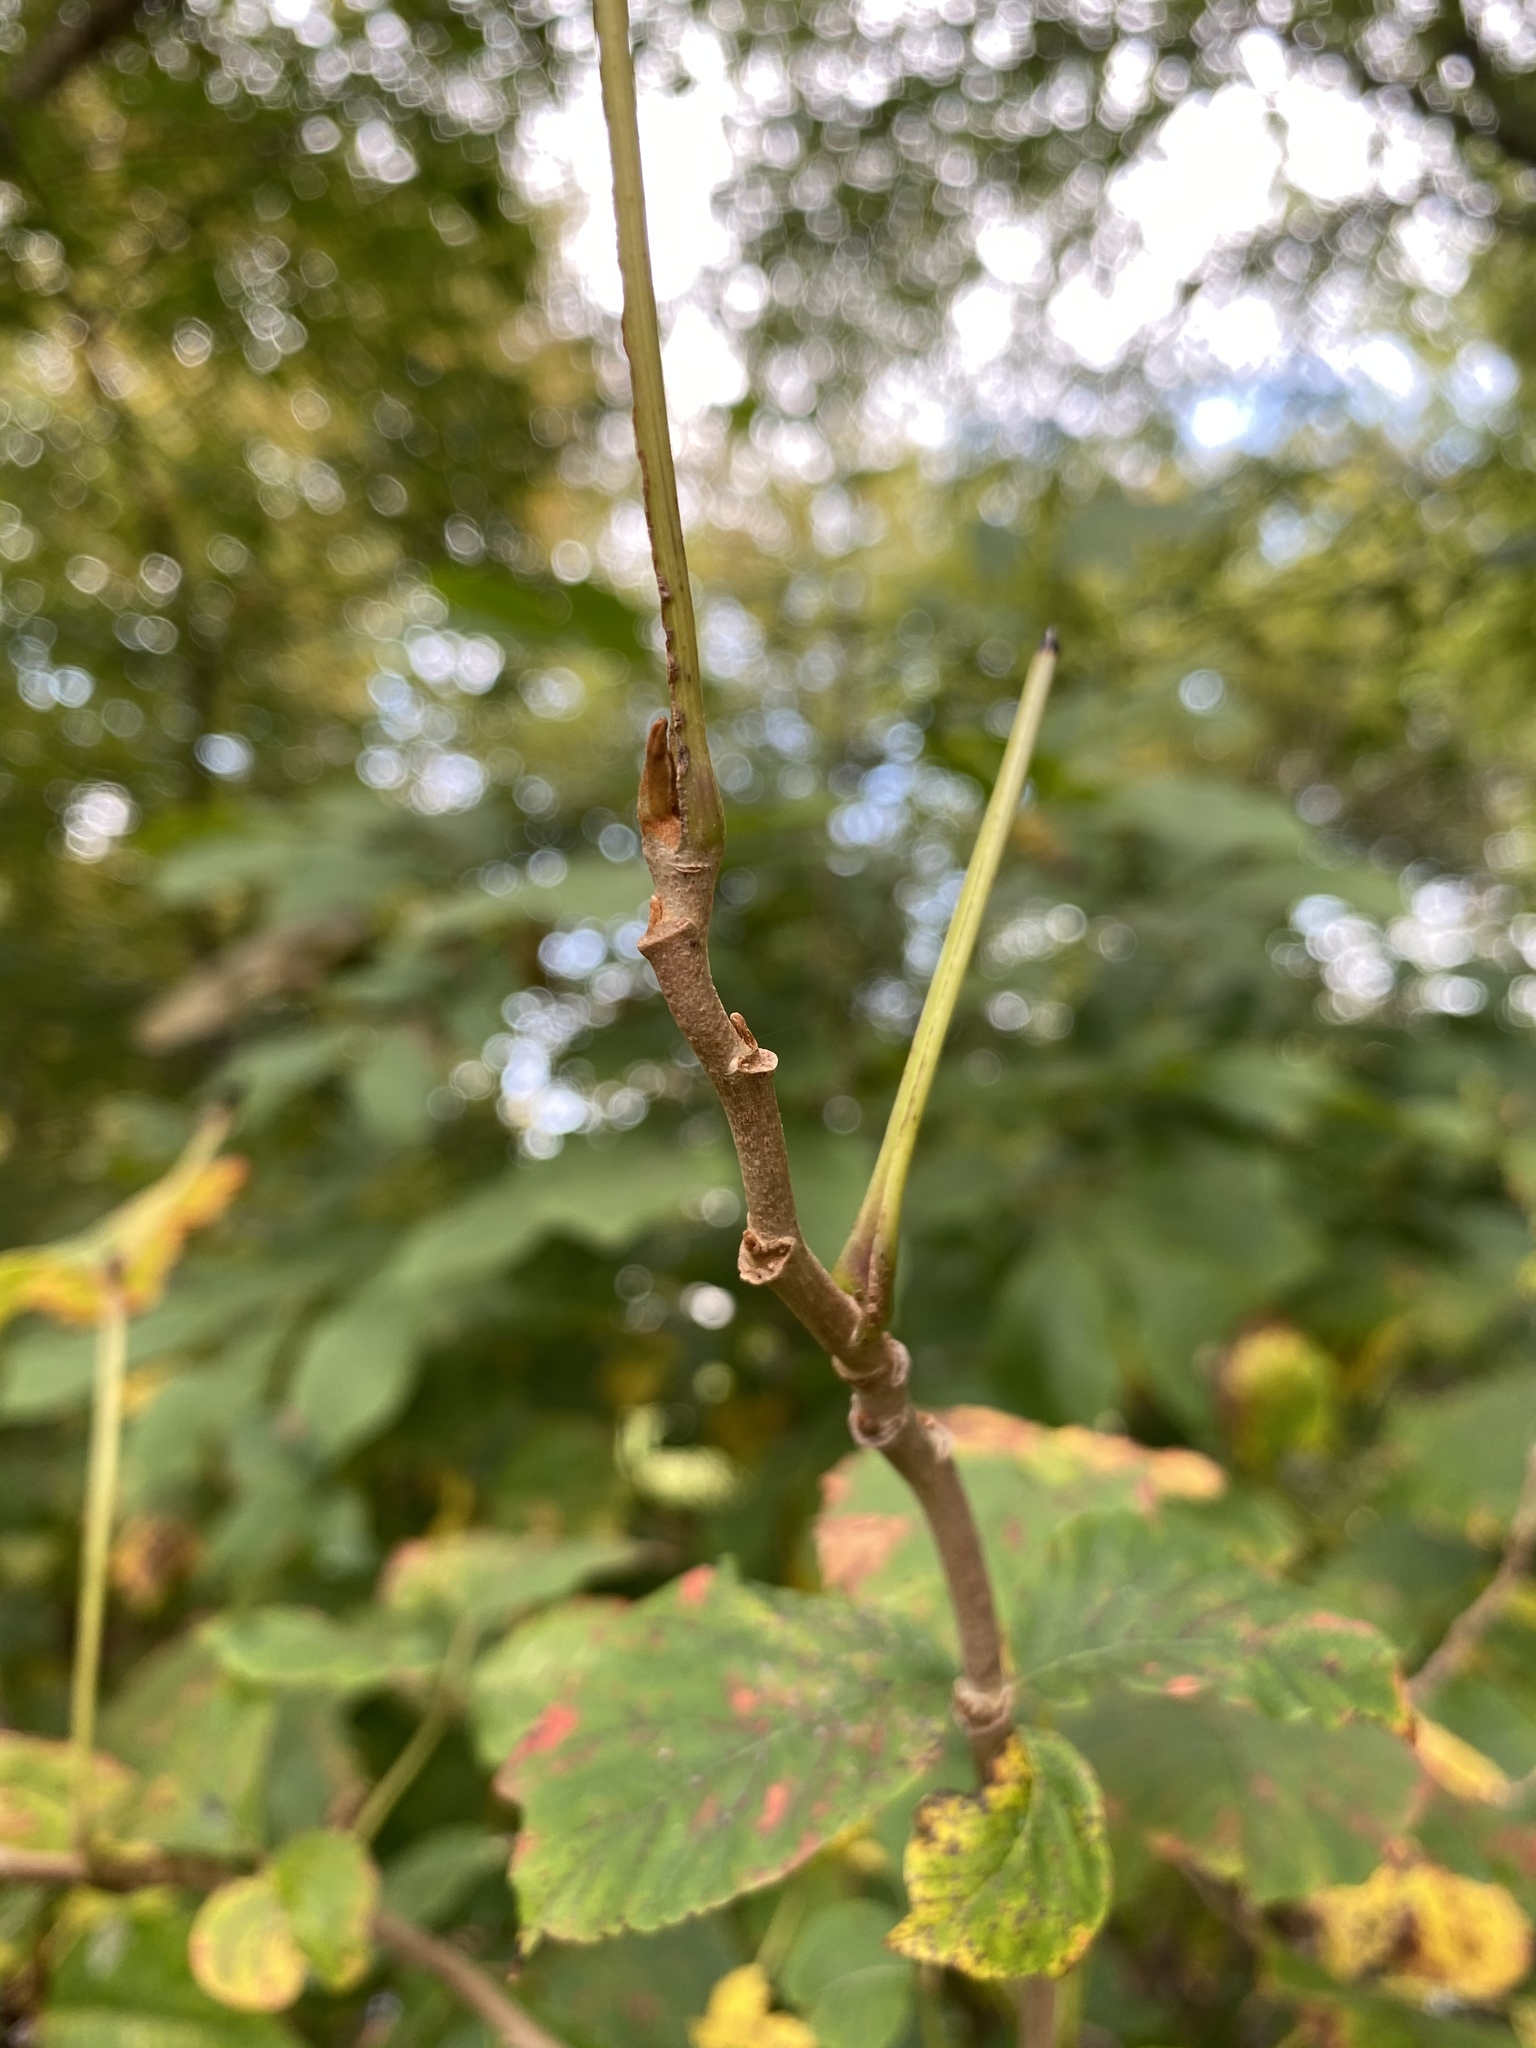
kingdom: Plantae
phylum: Tracheophyta
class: Magnoliopsida
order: Sapindales
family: Anacardiaceae
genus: Toxicodendron
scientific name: Toxicodendron radicans
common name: Poison ivy
